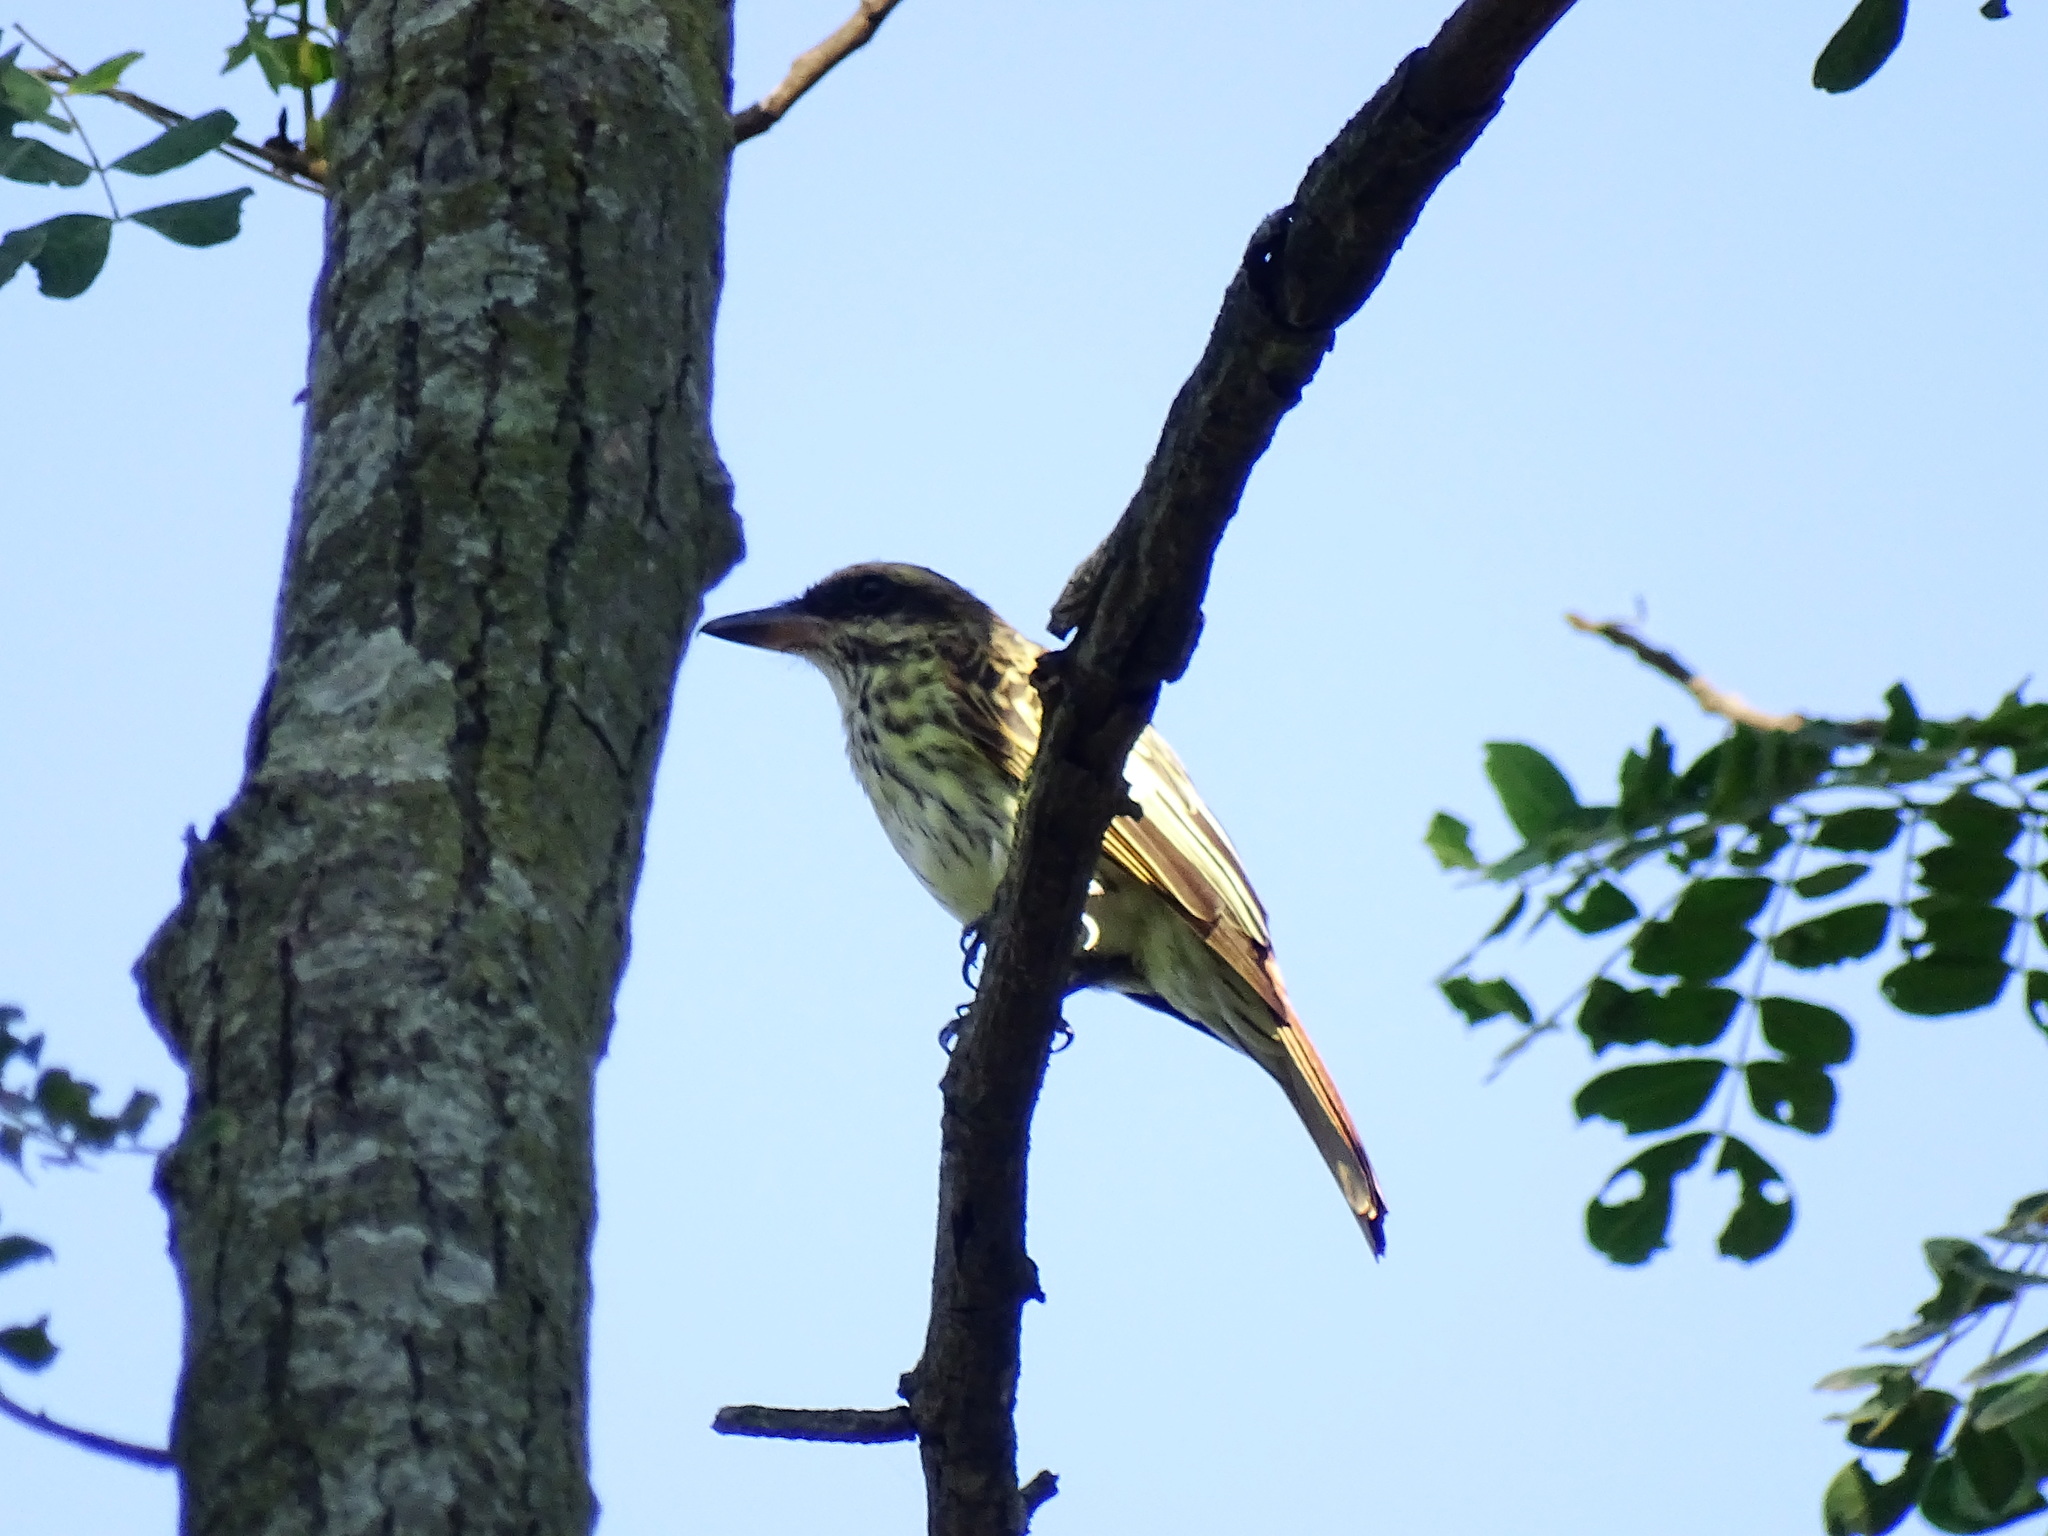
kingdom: Animalia
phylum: Chordata
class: Aves
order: Passeriformes
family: Tyrannidae
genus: Myiodynastes
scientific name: Myiodynastes maculatus
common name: Streaked flycatcher
